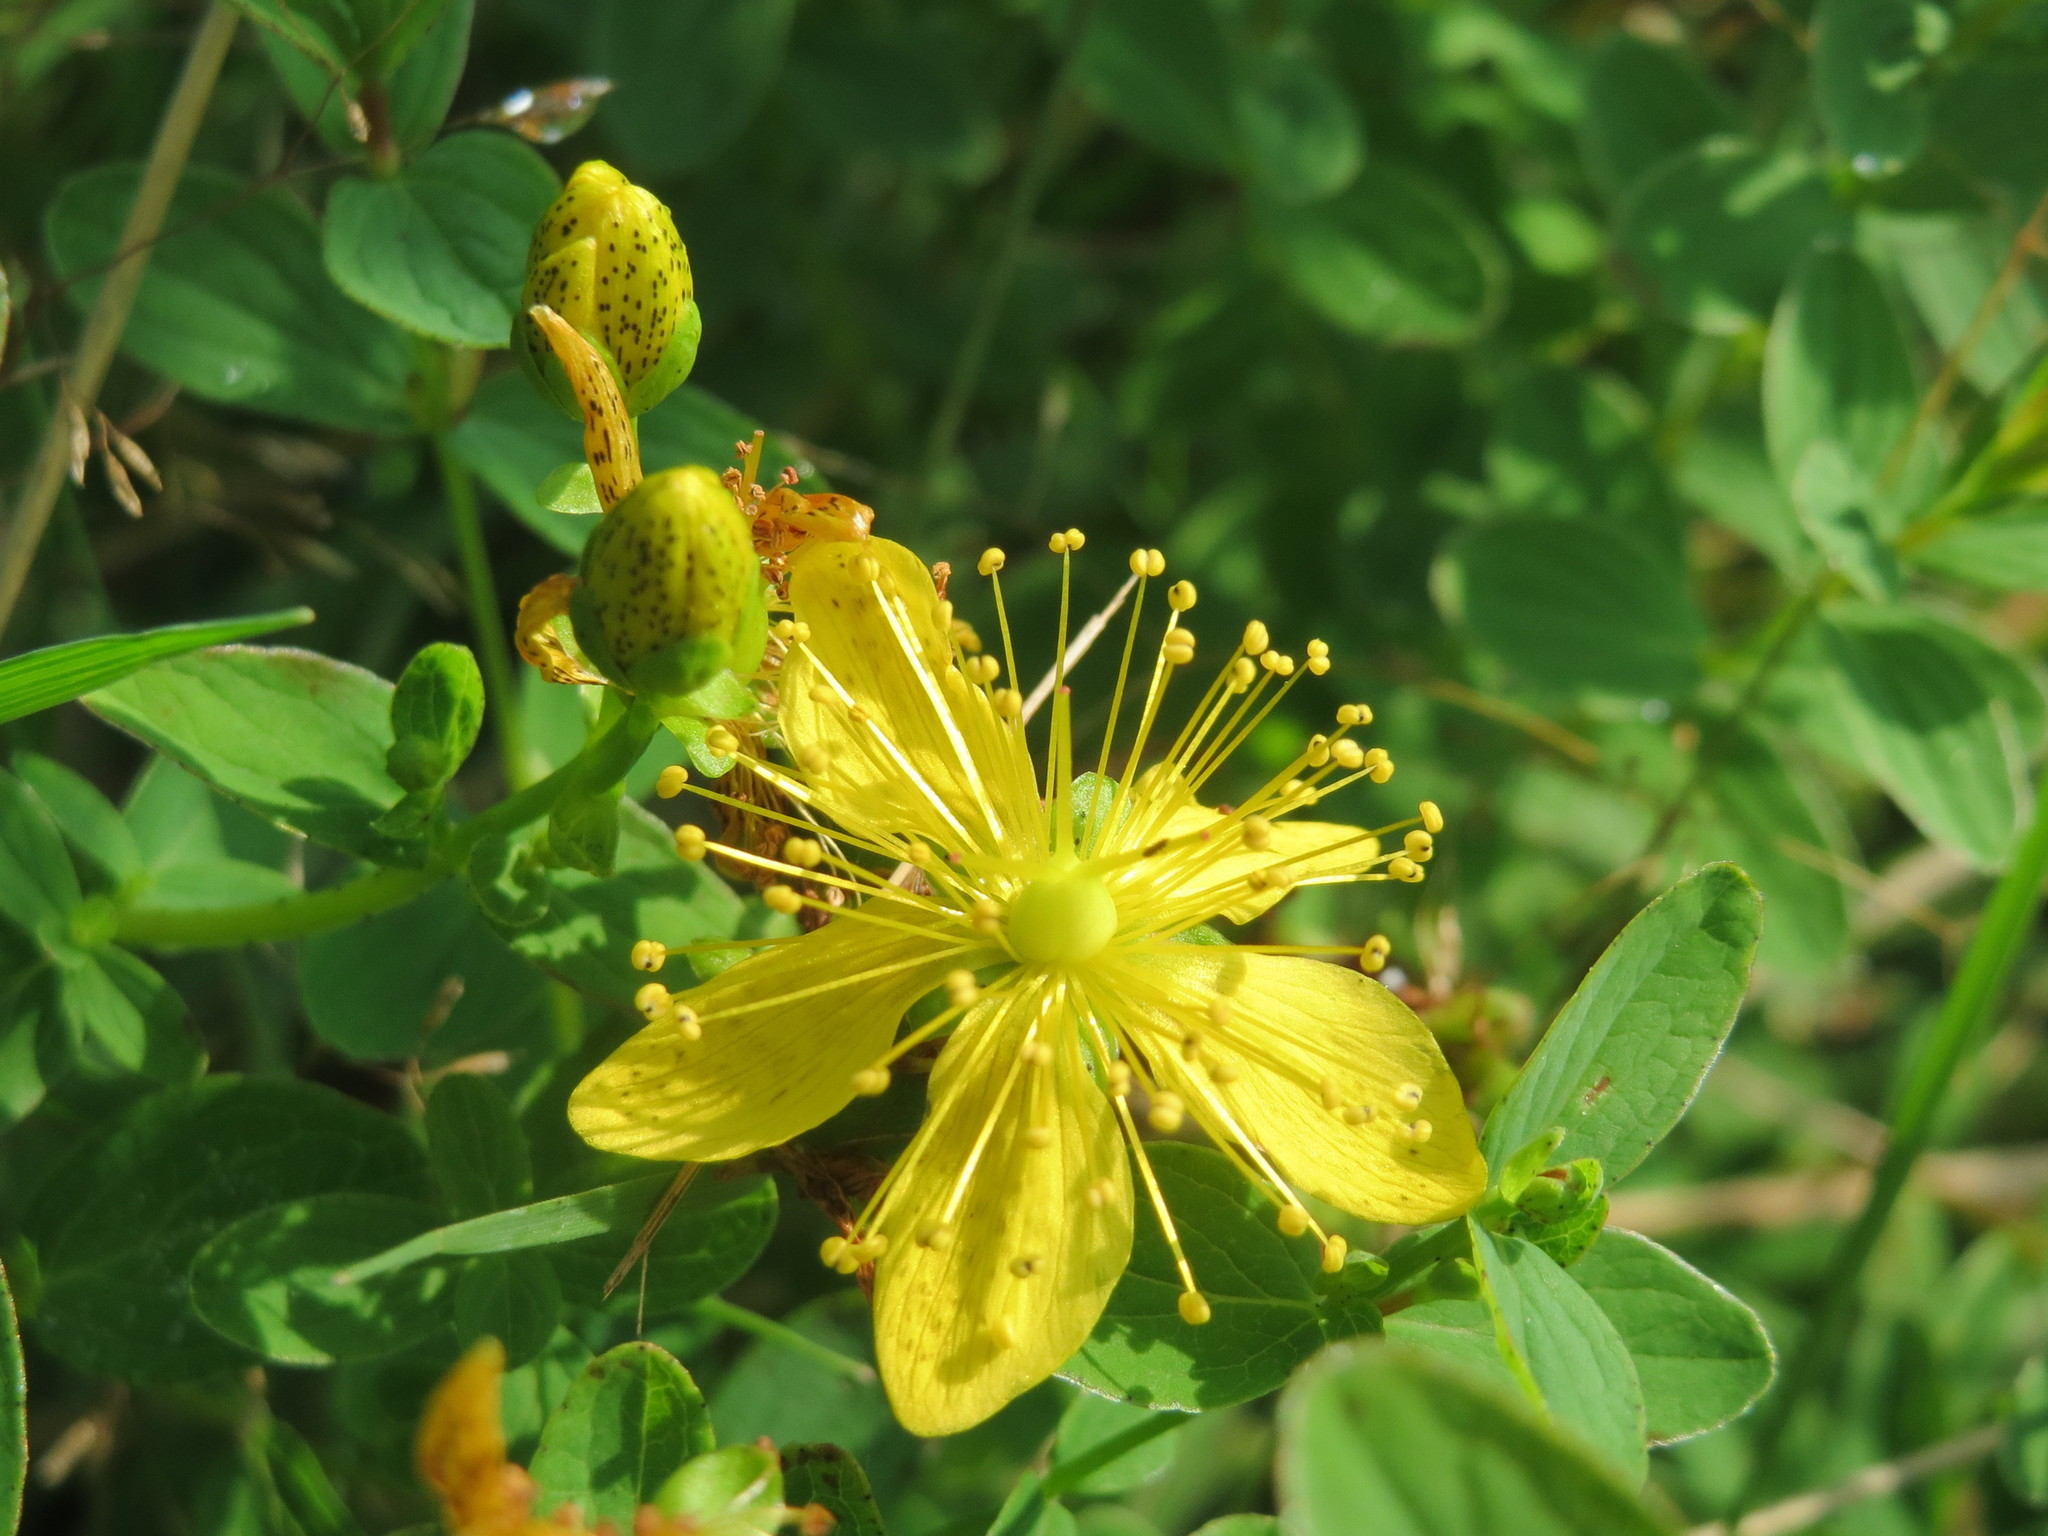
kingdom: Plantae
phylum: Tracheophyta
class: Magnoliopsida
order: Malpighiales
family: Hypericaceae
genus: Hypericum
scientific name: Hypericum maculatum
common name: Imperforate st. john's-wort
